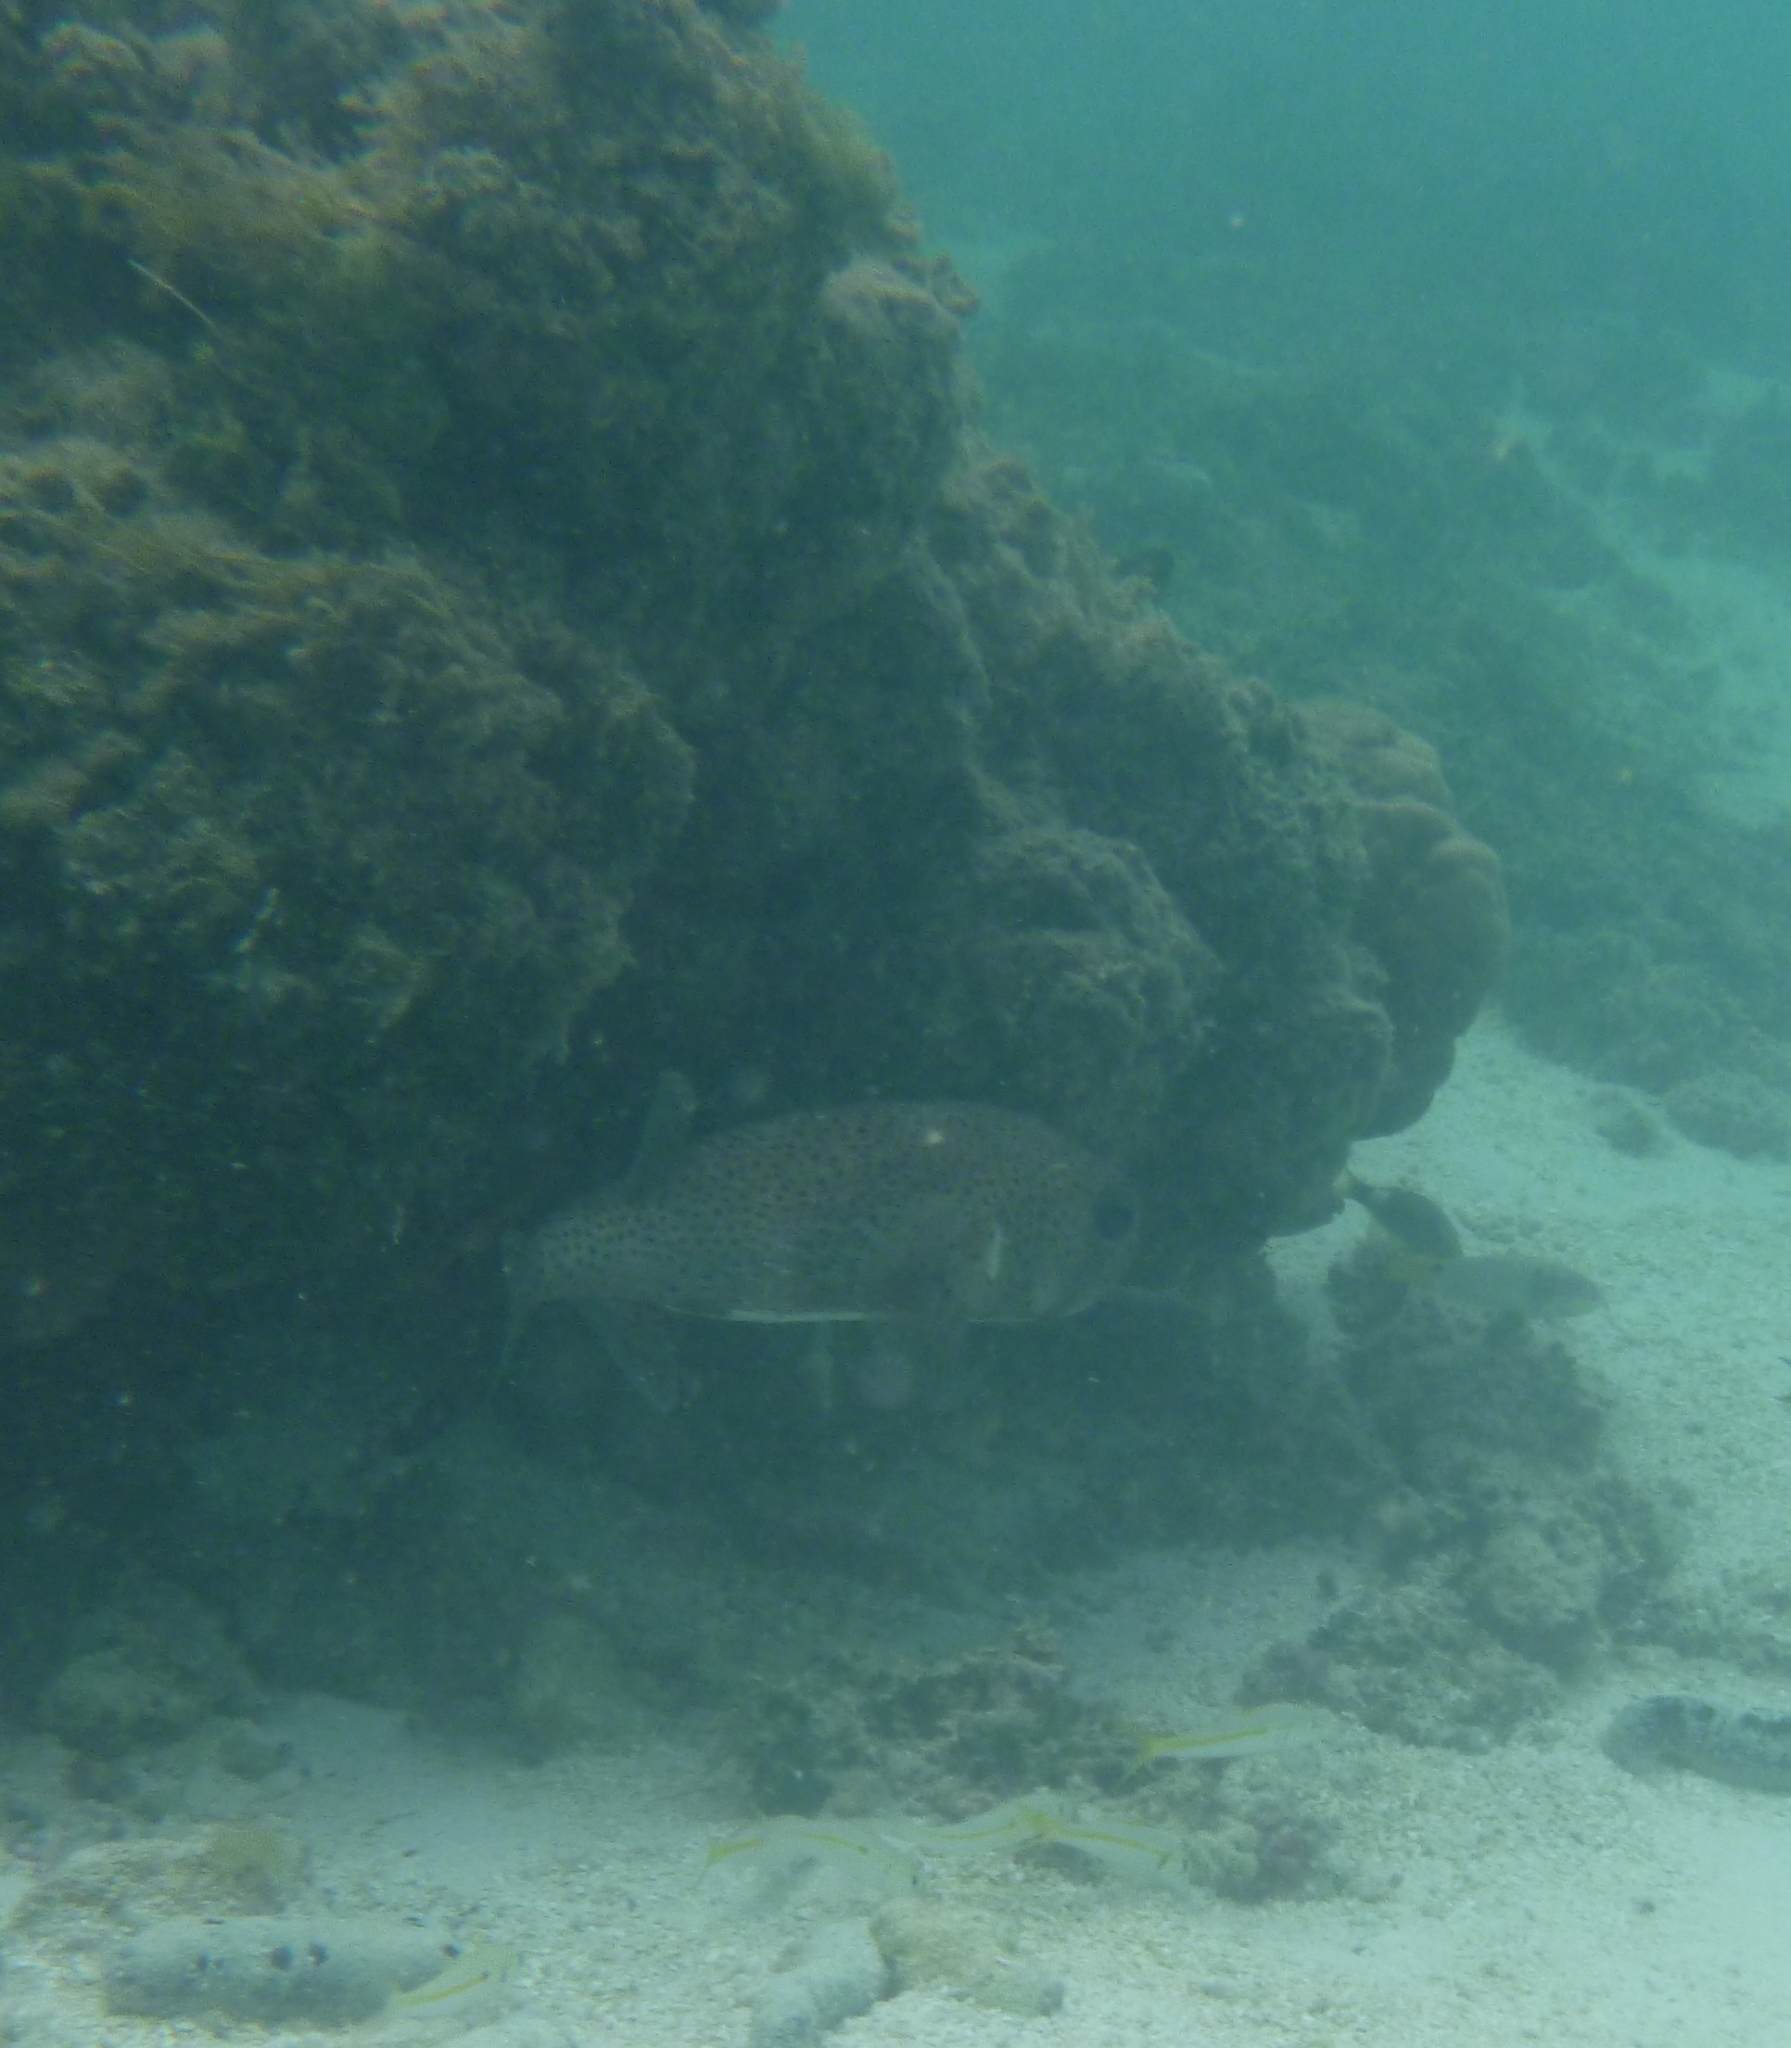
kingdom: Animalia
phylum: Chordata
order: Tetraodontiformes
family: Diodontidae
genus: Diodon
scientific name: Diodon hystrix
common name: Giant porcupinefish
